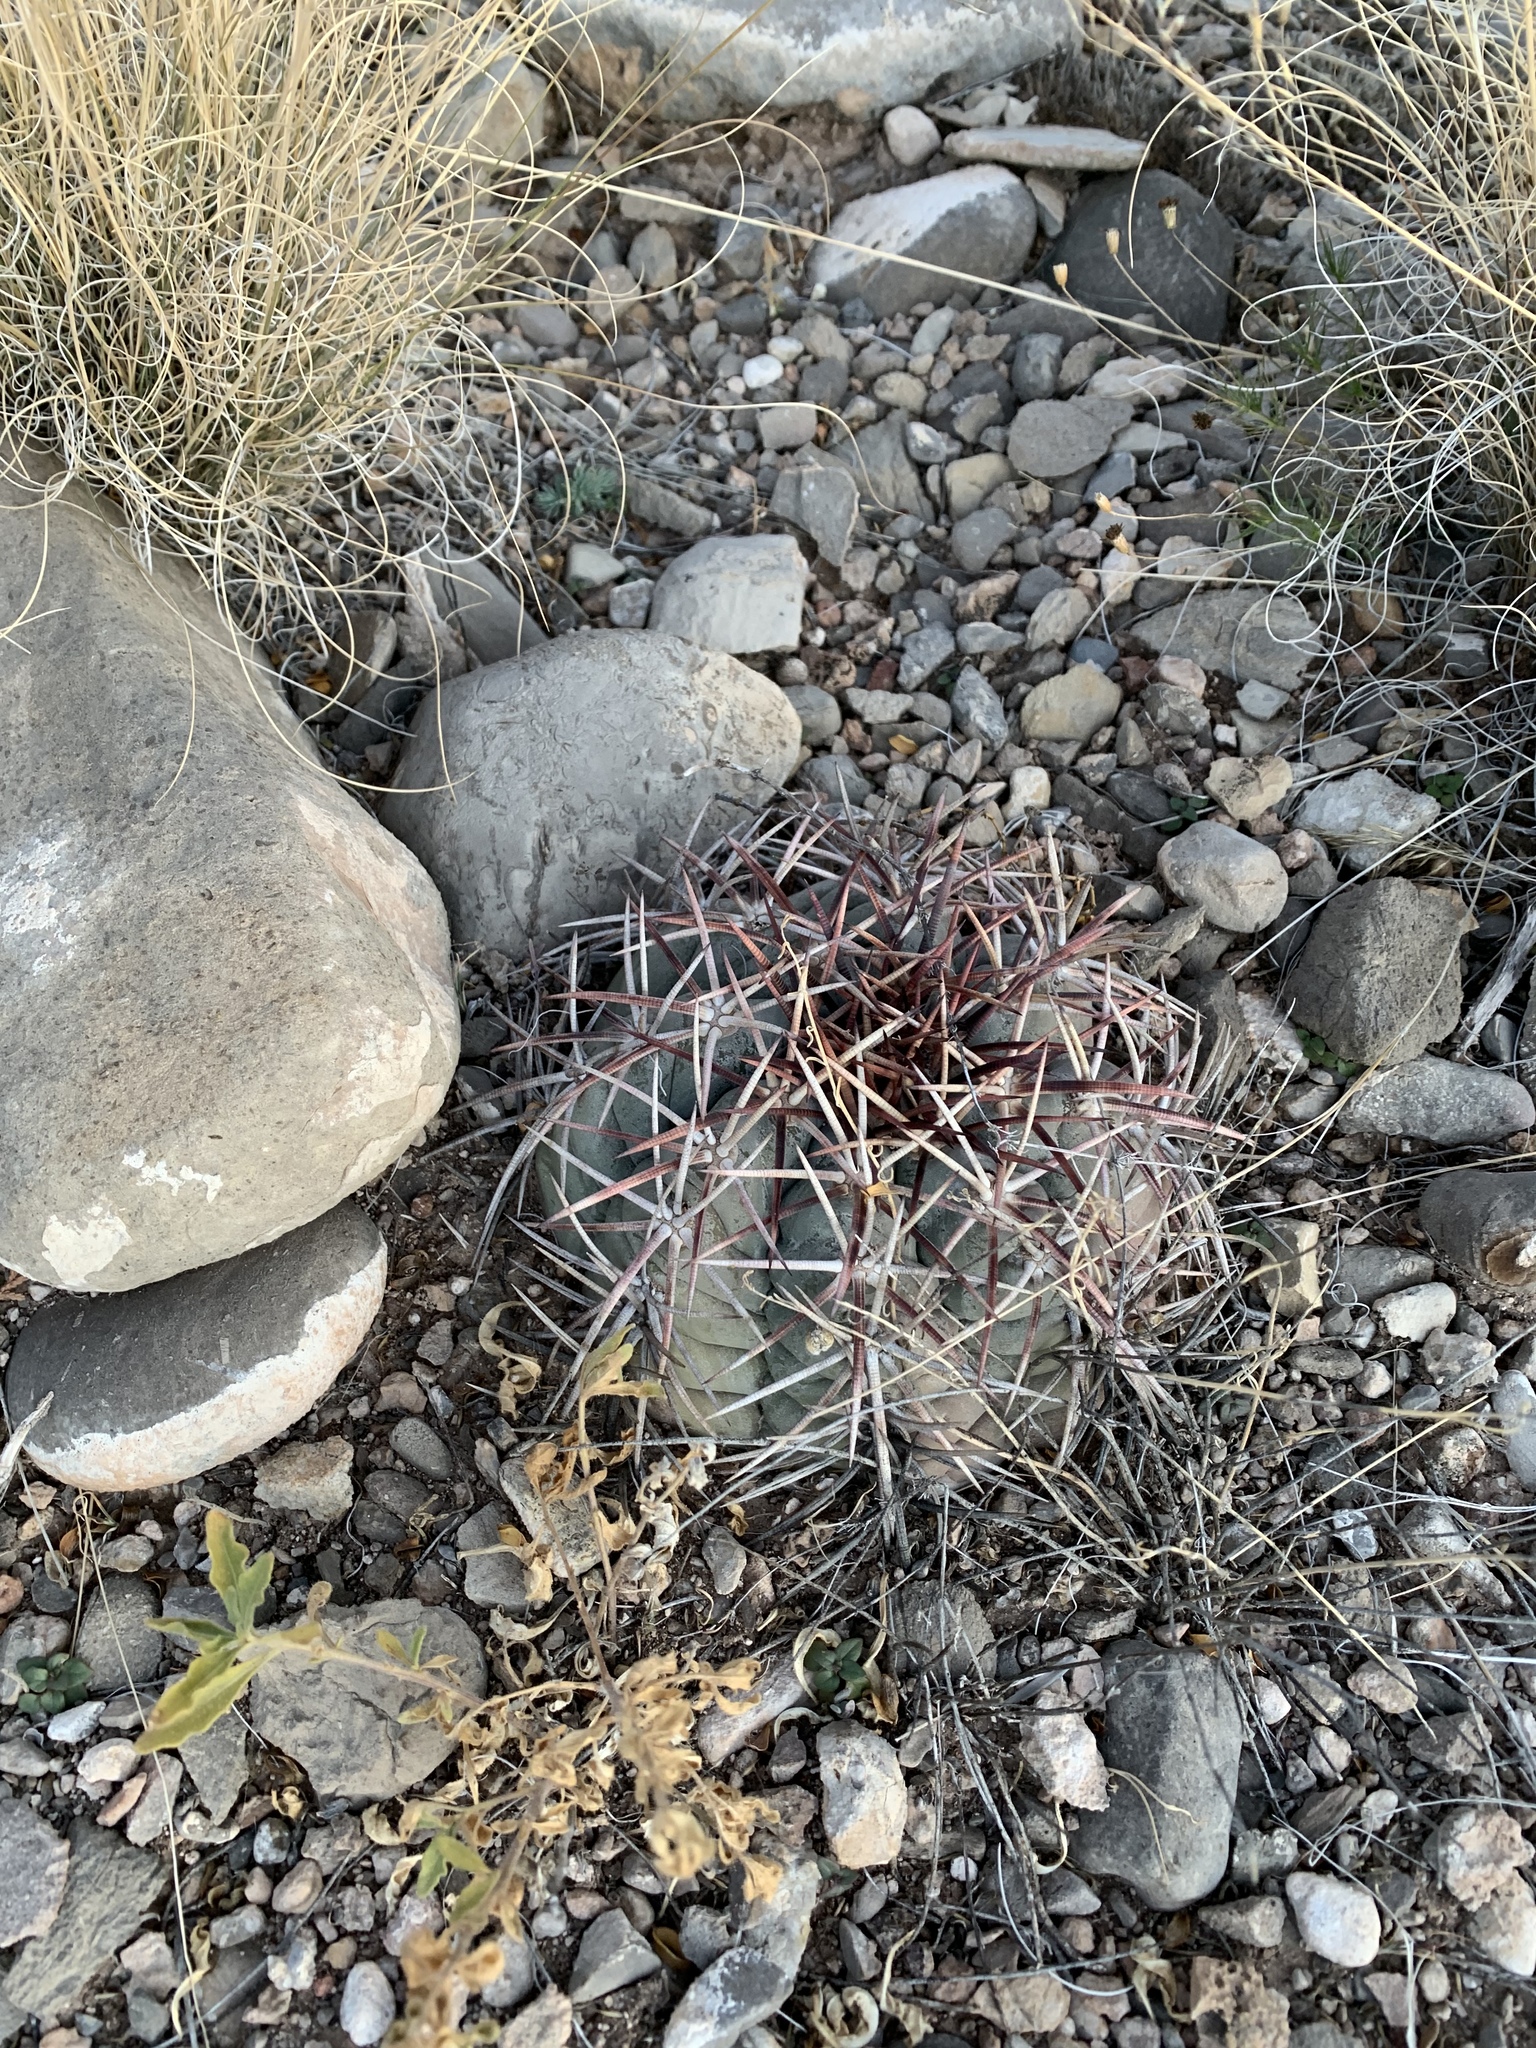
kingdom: Plantae
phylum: Tracheophyta
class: Magnoliopsida
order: Caryophyllales
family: Cactaceae
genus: Echinocactus
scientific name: Echinocactus horizonthalonius
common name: Devilshead
